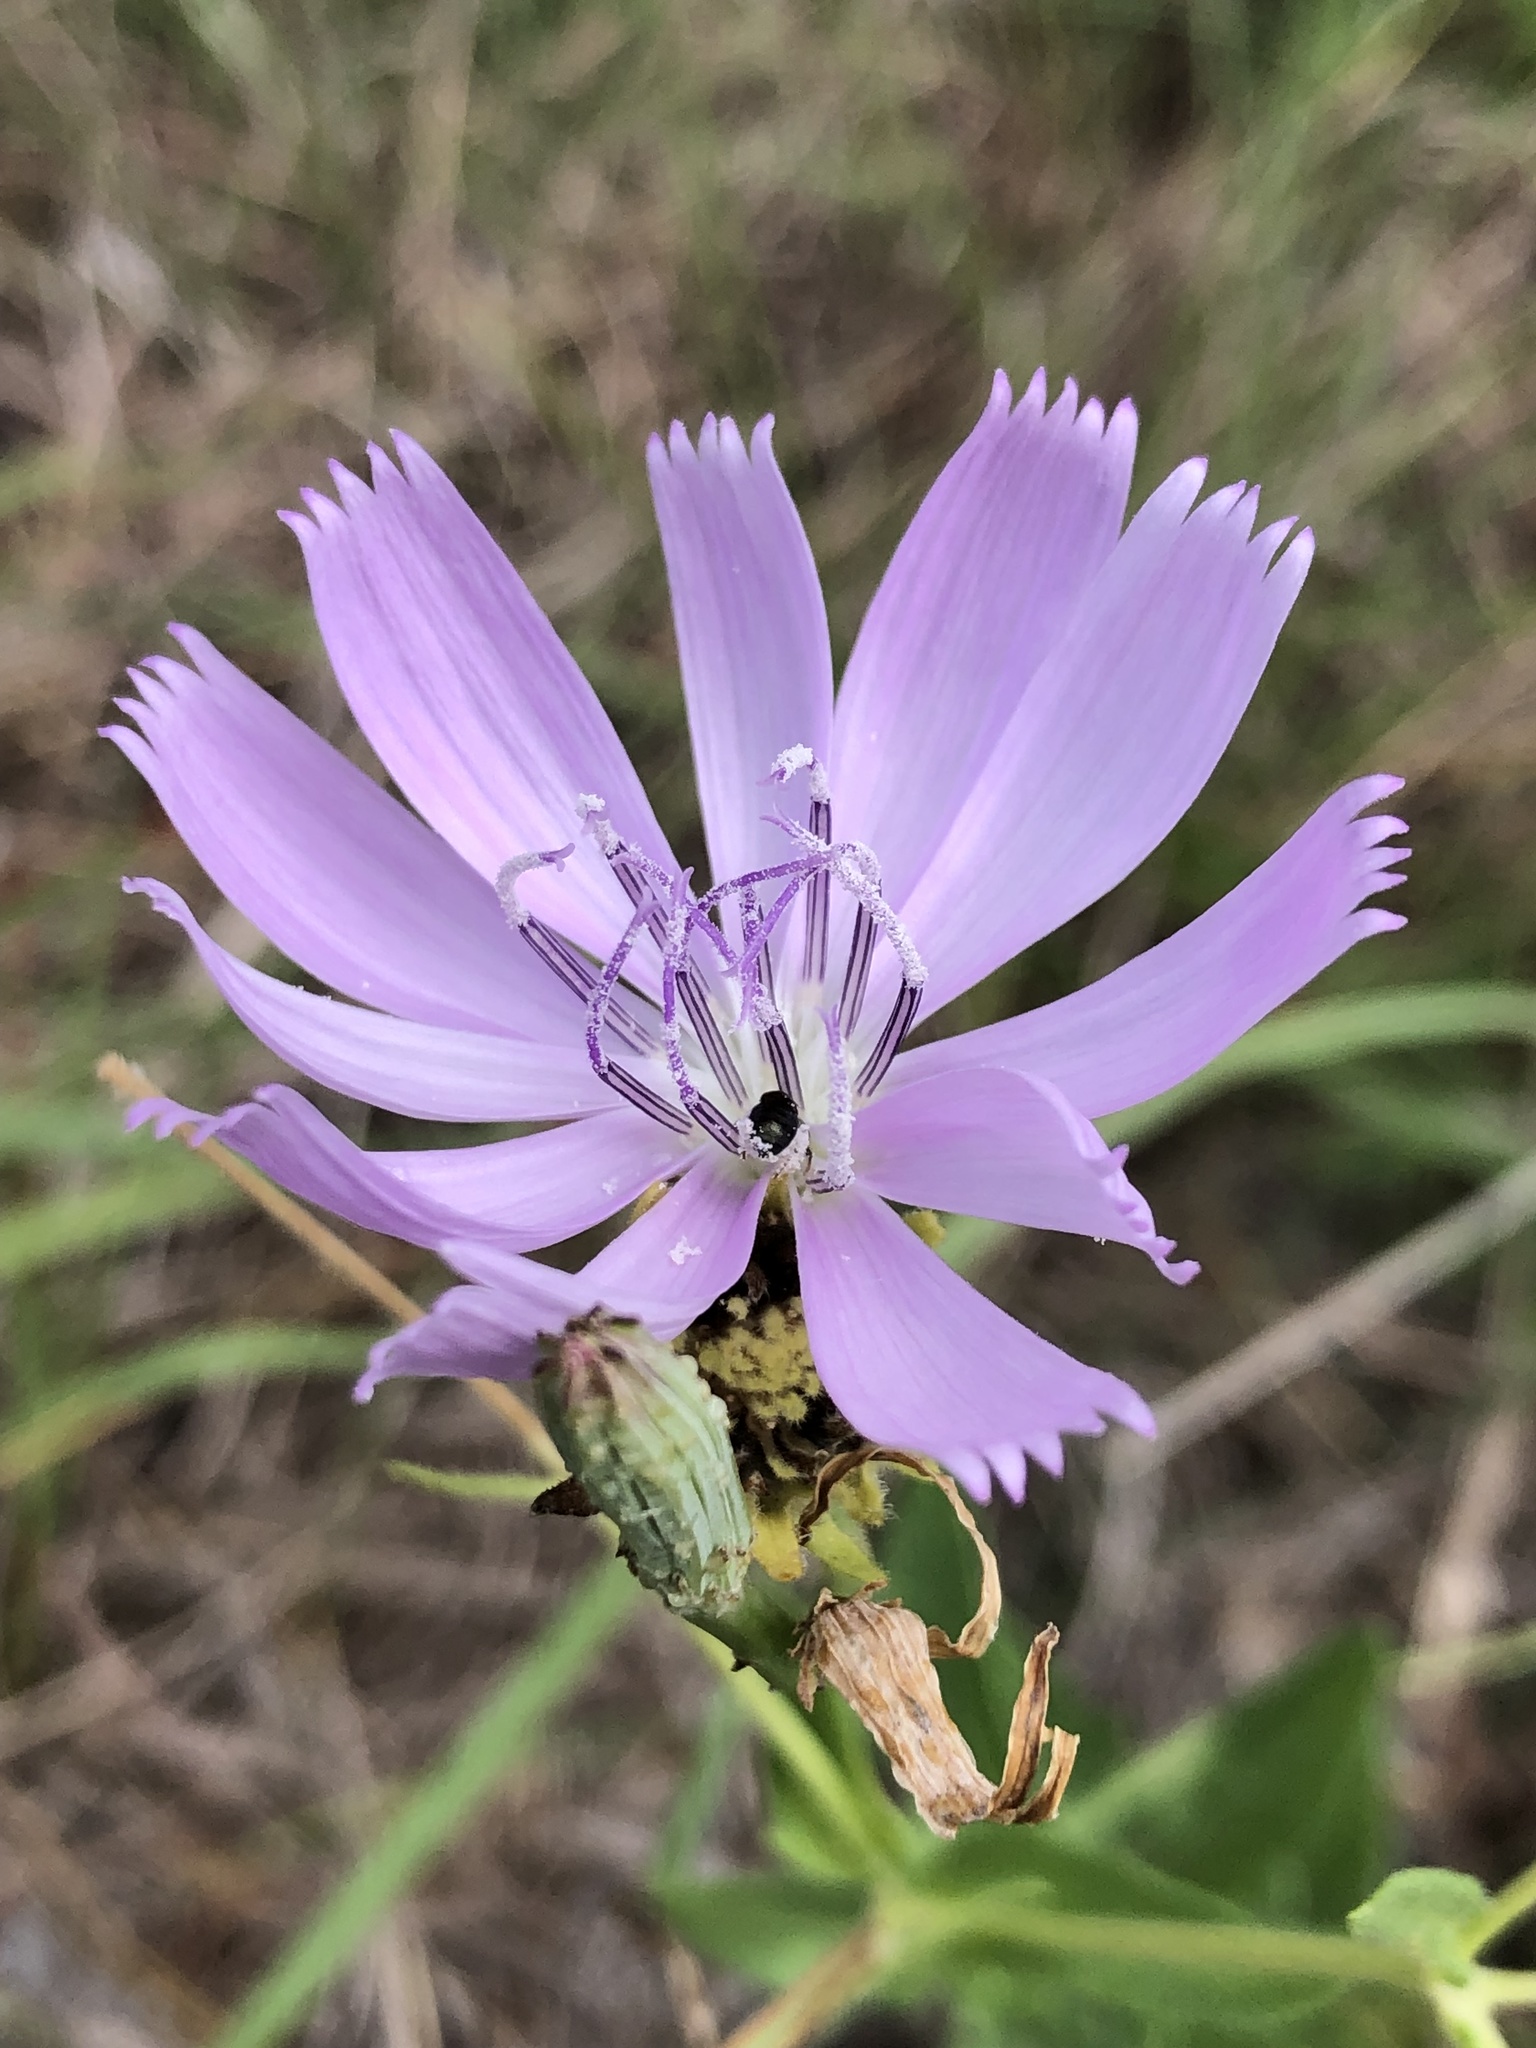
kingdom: Plantae
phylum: Tracheophyta
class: Magnoliopsida
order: Asterales
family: Asteraceae
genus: Lygodesmia
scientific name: Lygodesmia texana
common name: Texas skeleton-plant
